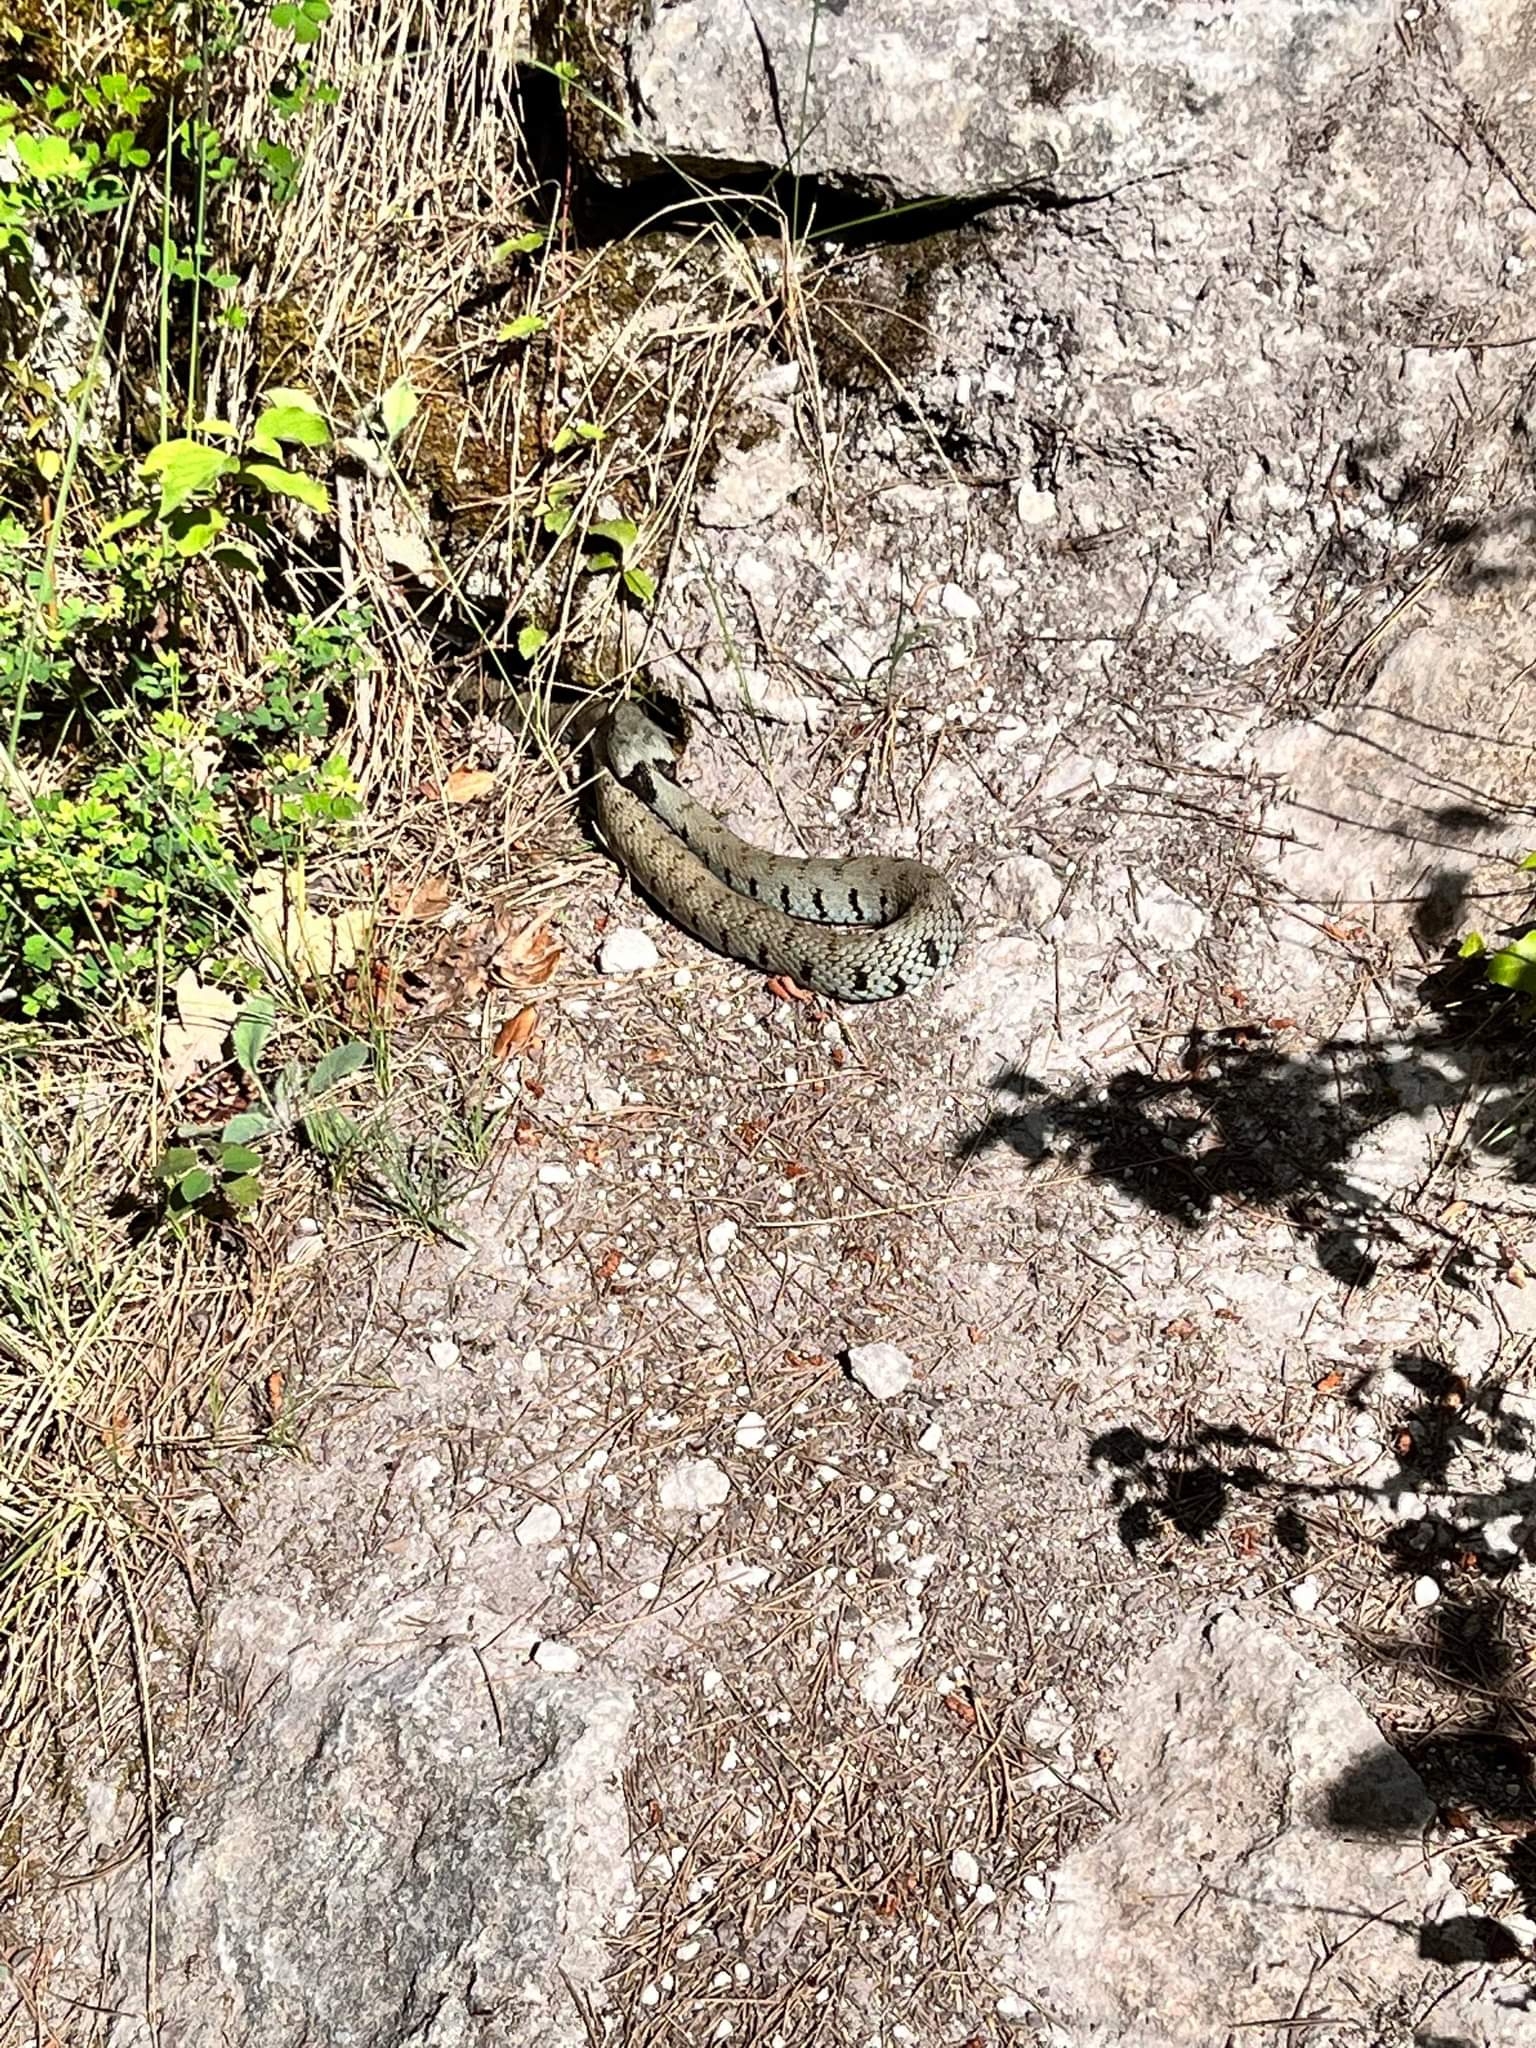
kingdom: Animalia
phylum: Chordata
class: Squamata
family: Colubridae
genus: Natrix
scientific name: Natrix helvetica
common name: Banded grass snake
